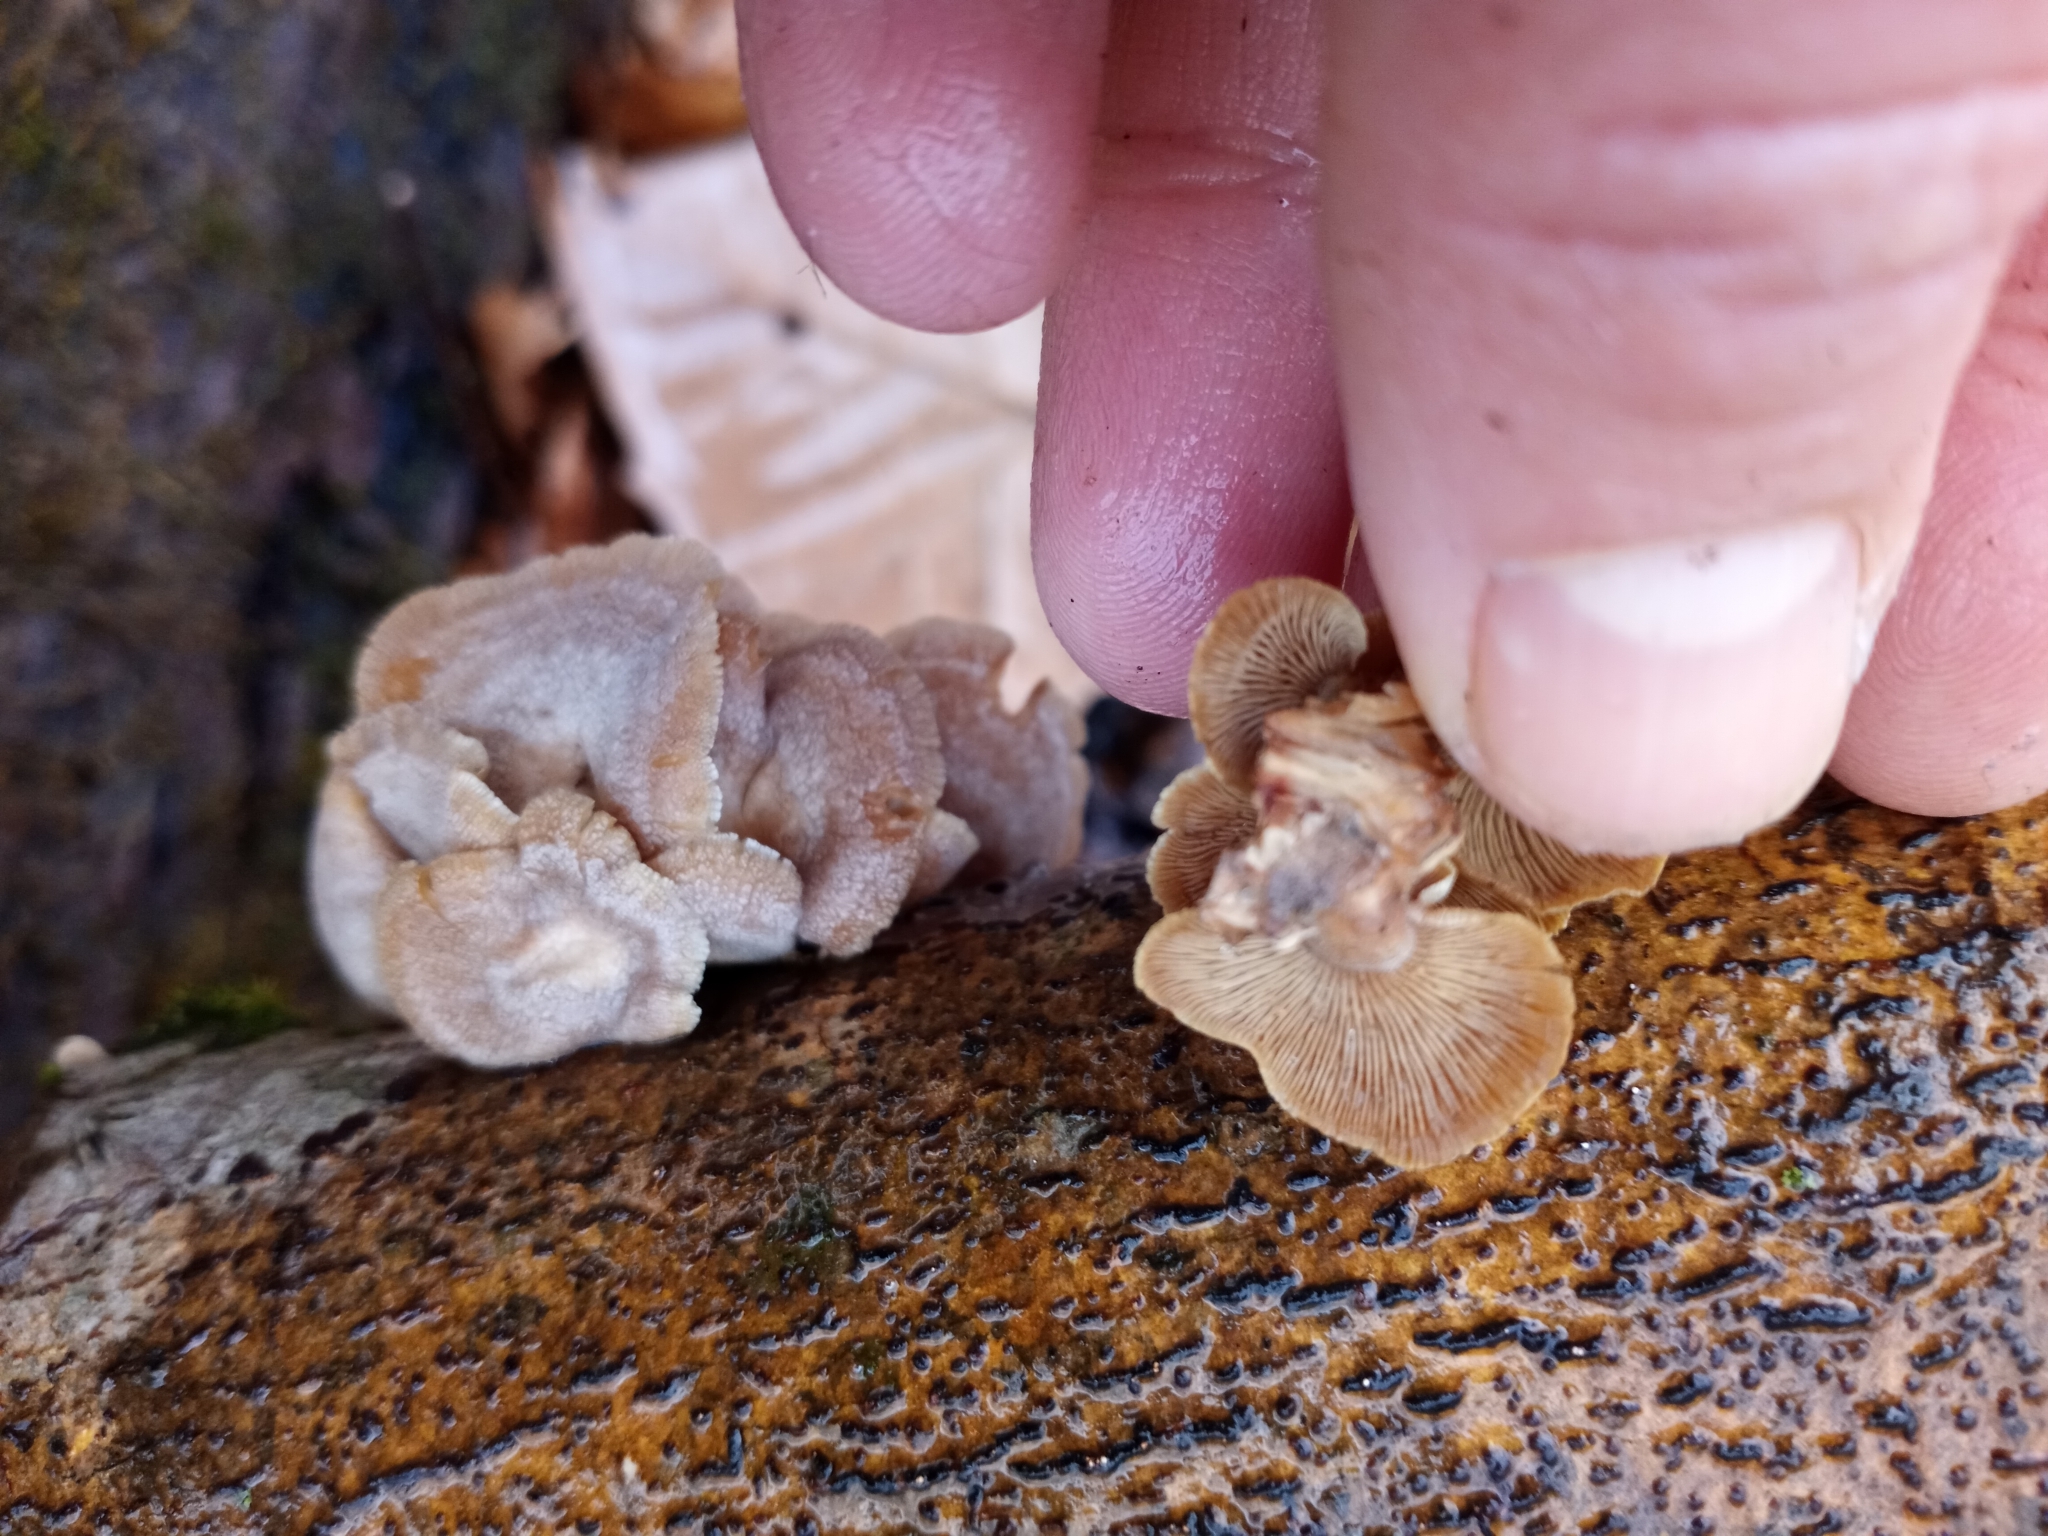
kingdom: Fungi
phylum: Basidiomycota
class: Agaricomycetes
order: Agaricales
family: Mycenaceae
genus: Panellus
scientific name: Panellus stipticus
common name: Bitter oysterling
